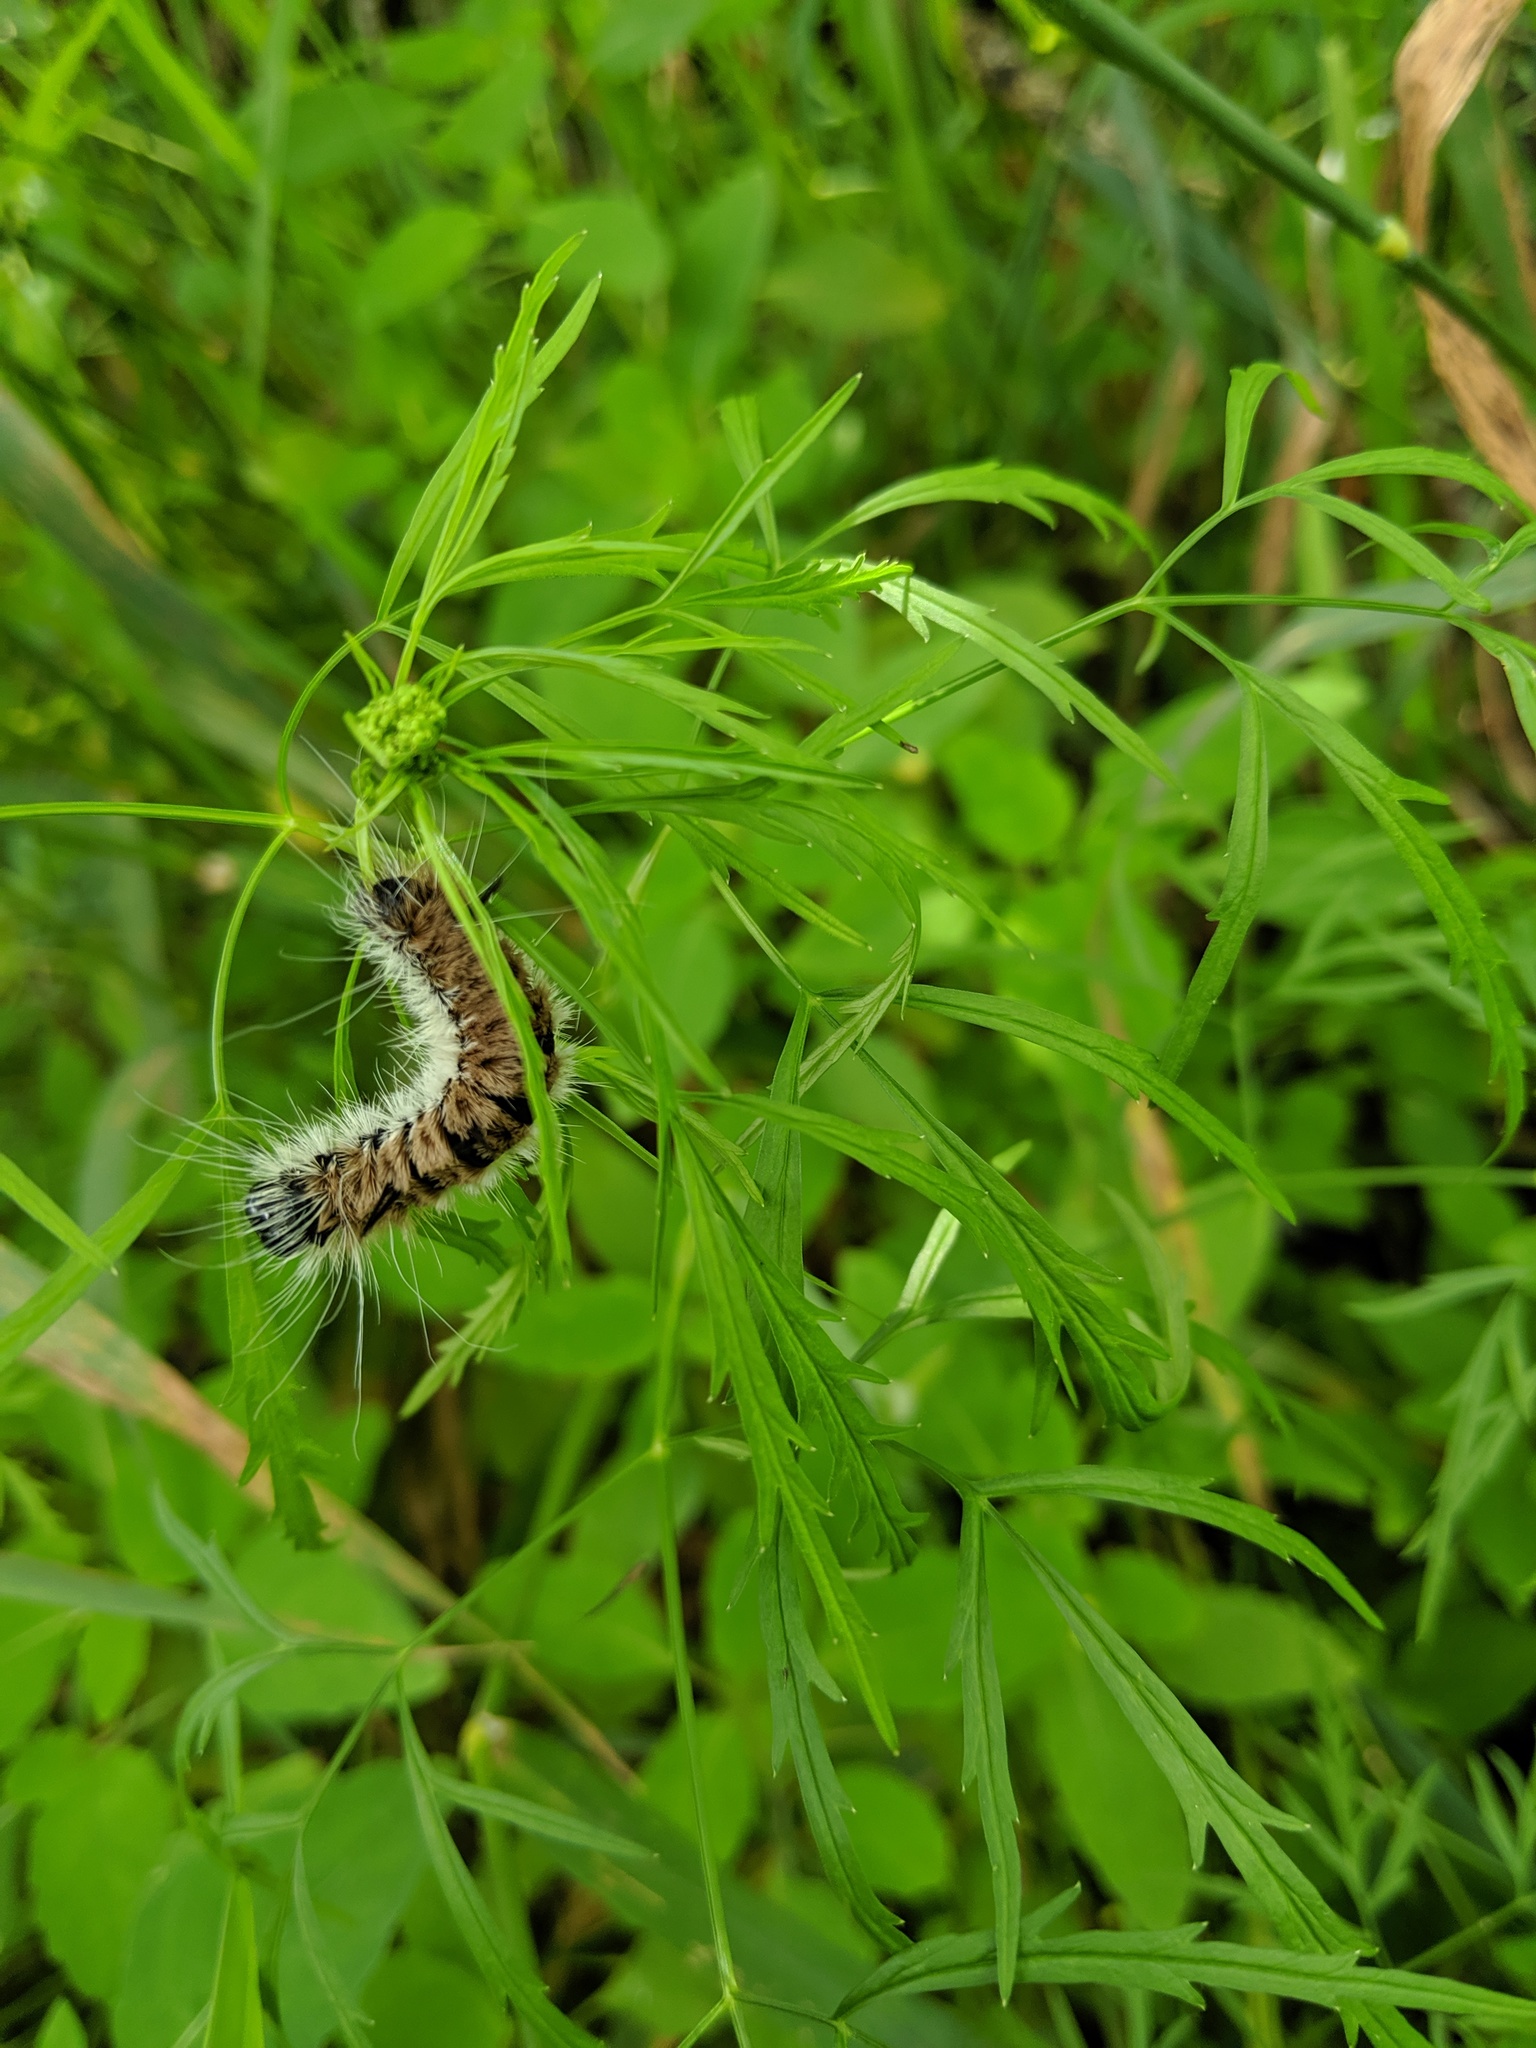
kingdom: Animalia
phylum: Arthropoda
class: Insecta
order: Lepidoptera
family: Noctuidae
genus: Acronicta
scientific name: Acronicta insita
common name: Large gray dagger
